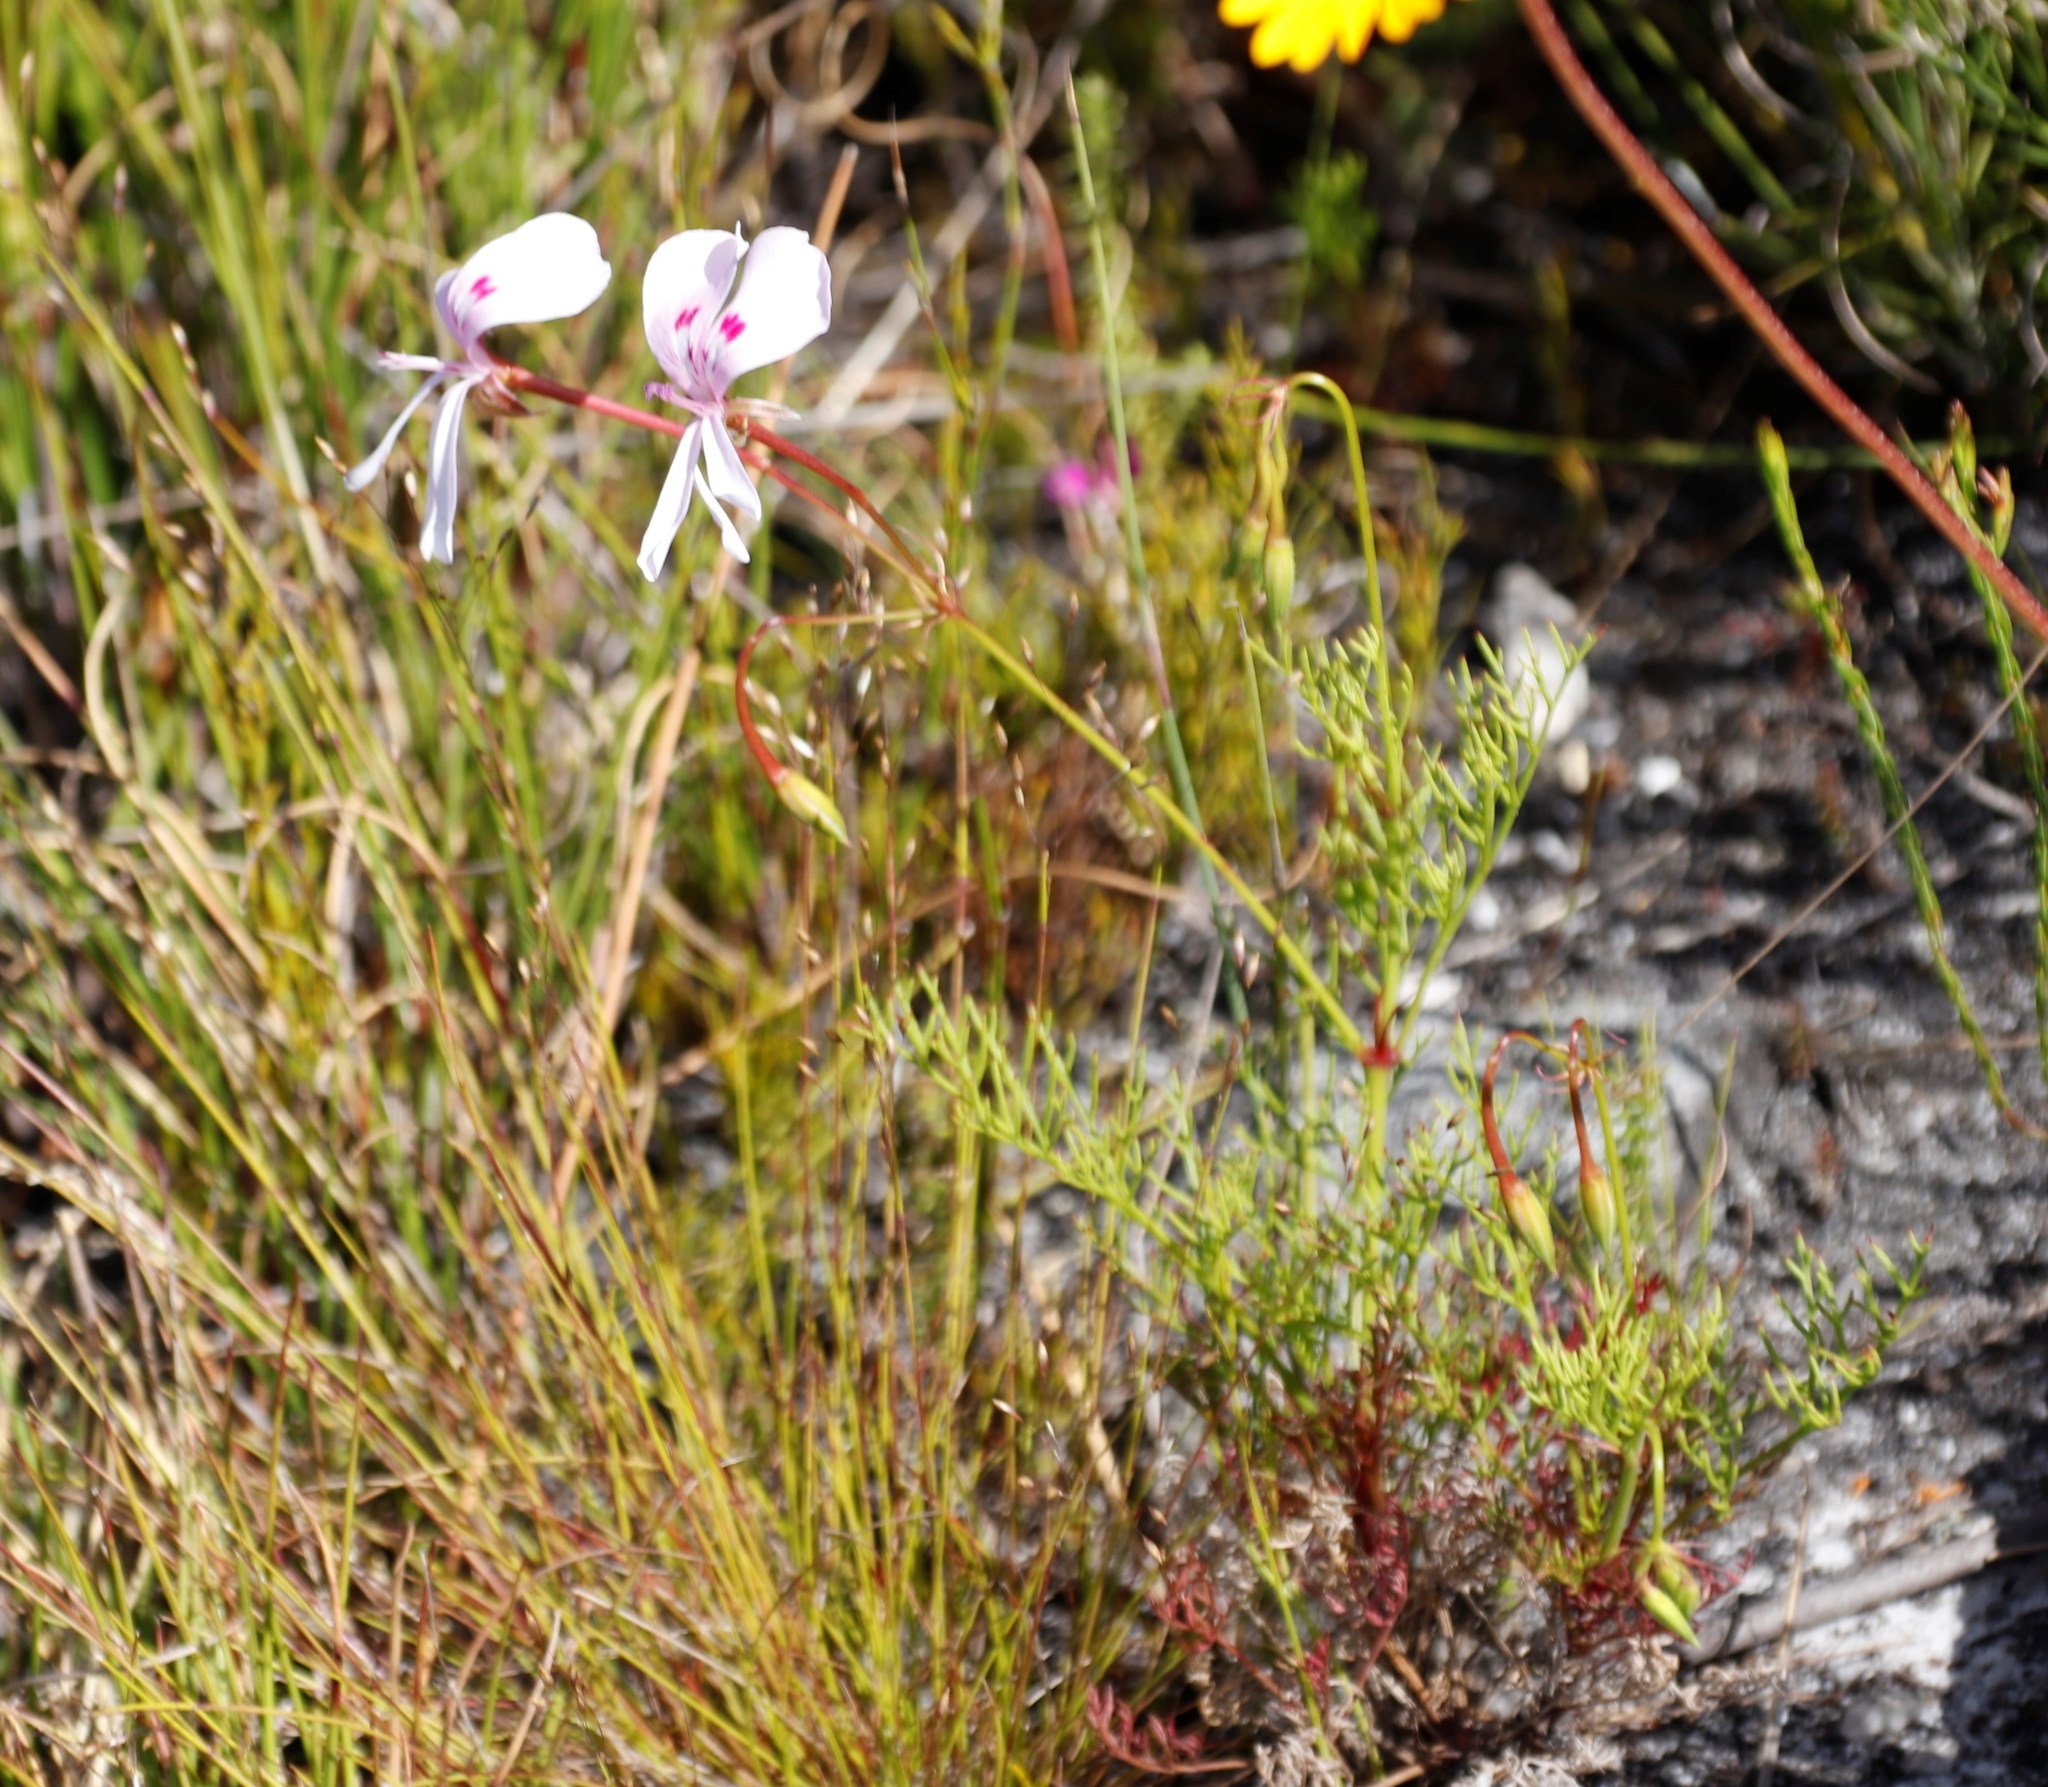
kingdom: Plantae
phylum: Tracheophyta
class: Magnoliopsida
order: Geraniales
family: Geraniaceae
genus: Pelargonium
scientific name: Pelargonium artemisiifolium
